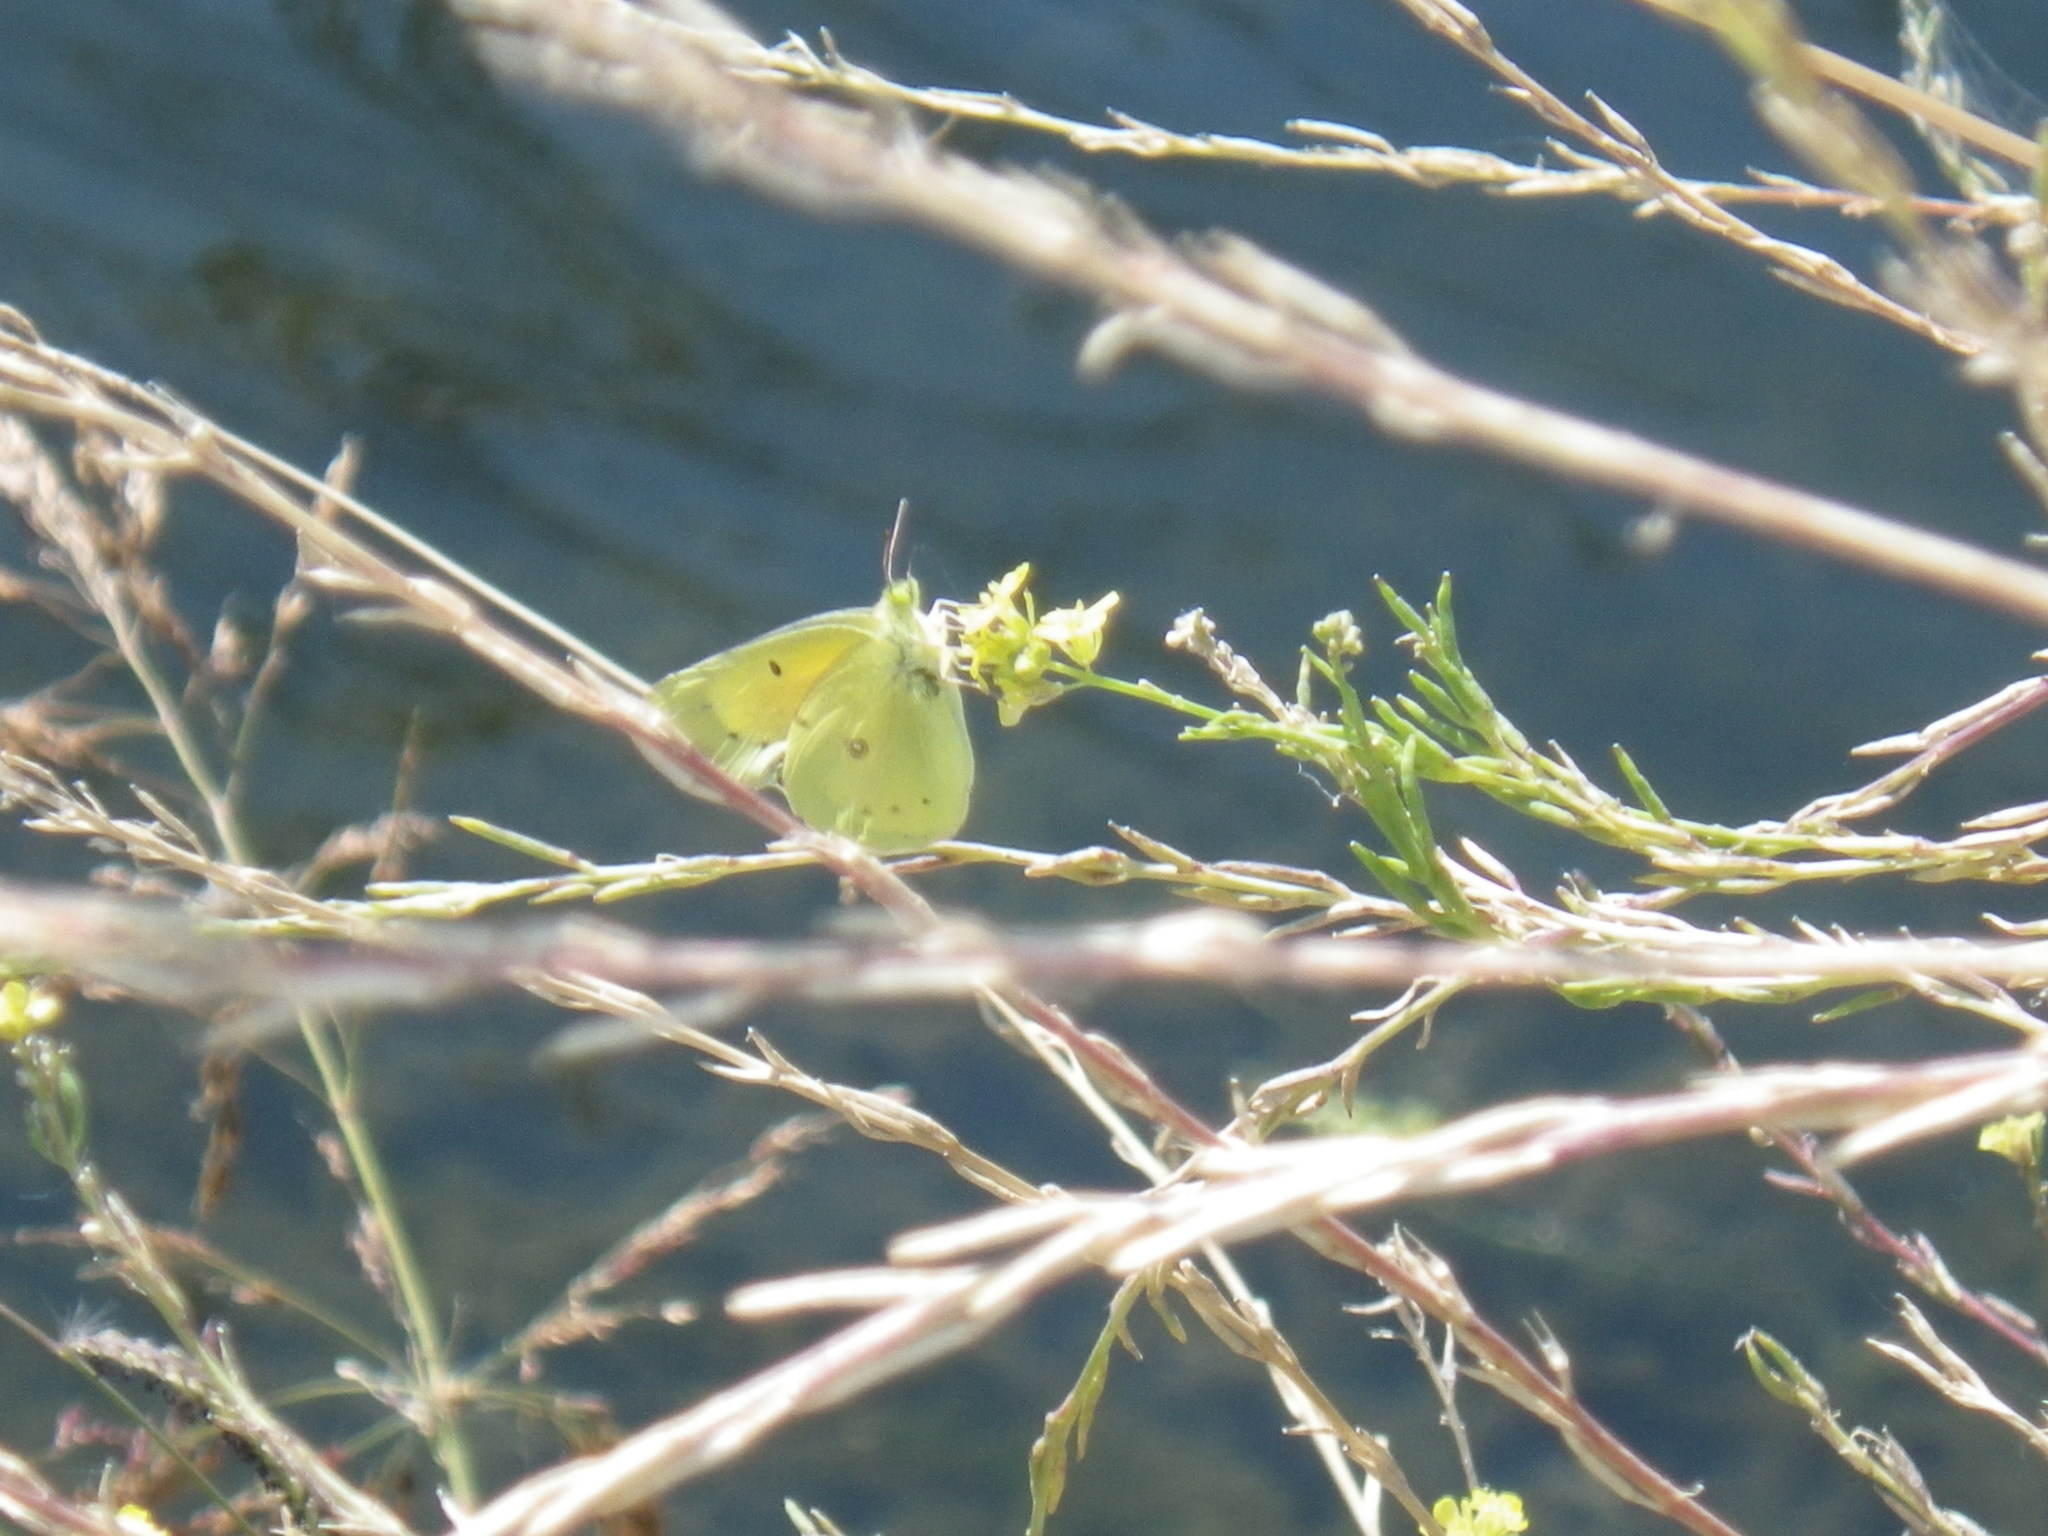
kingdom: Animalia
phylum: Arthropoda
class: Insecta
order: Lepidoptera
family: Pieridae
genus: Colias
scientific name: Colias eurytheme
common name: Alfalfa butterfly
